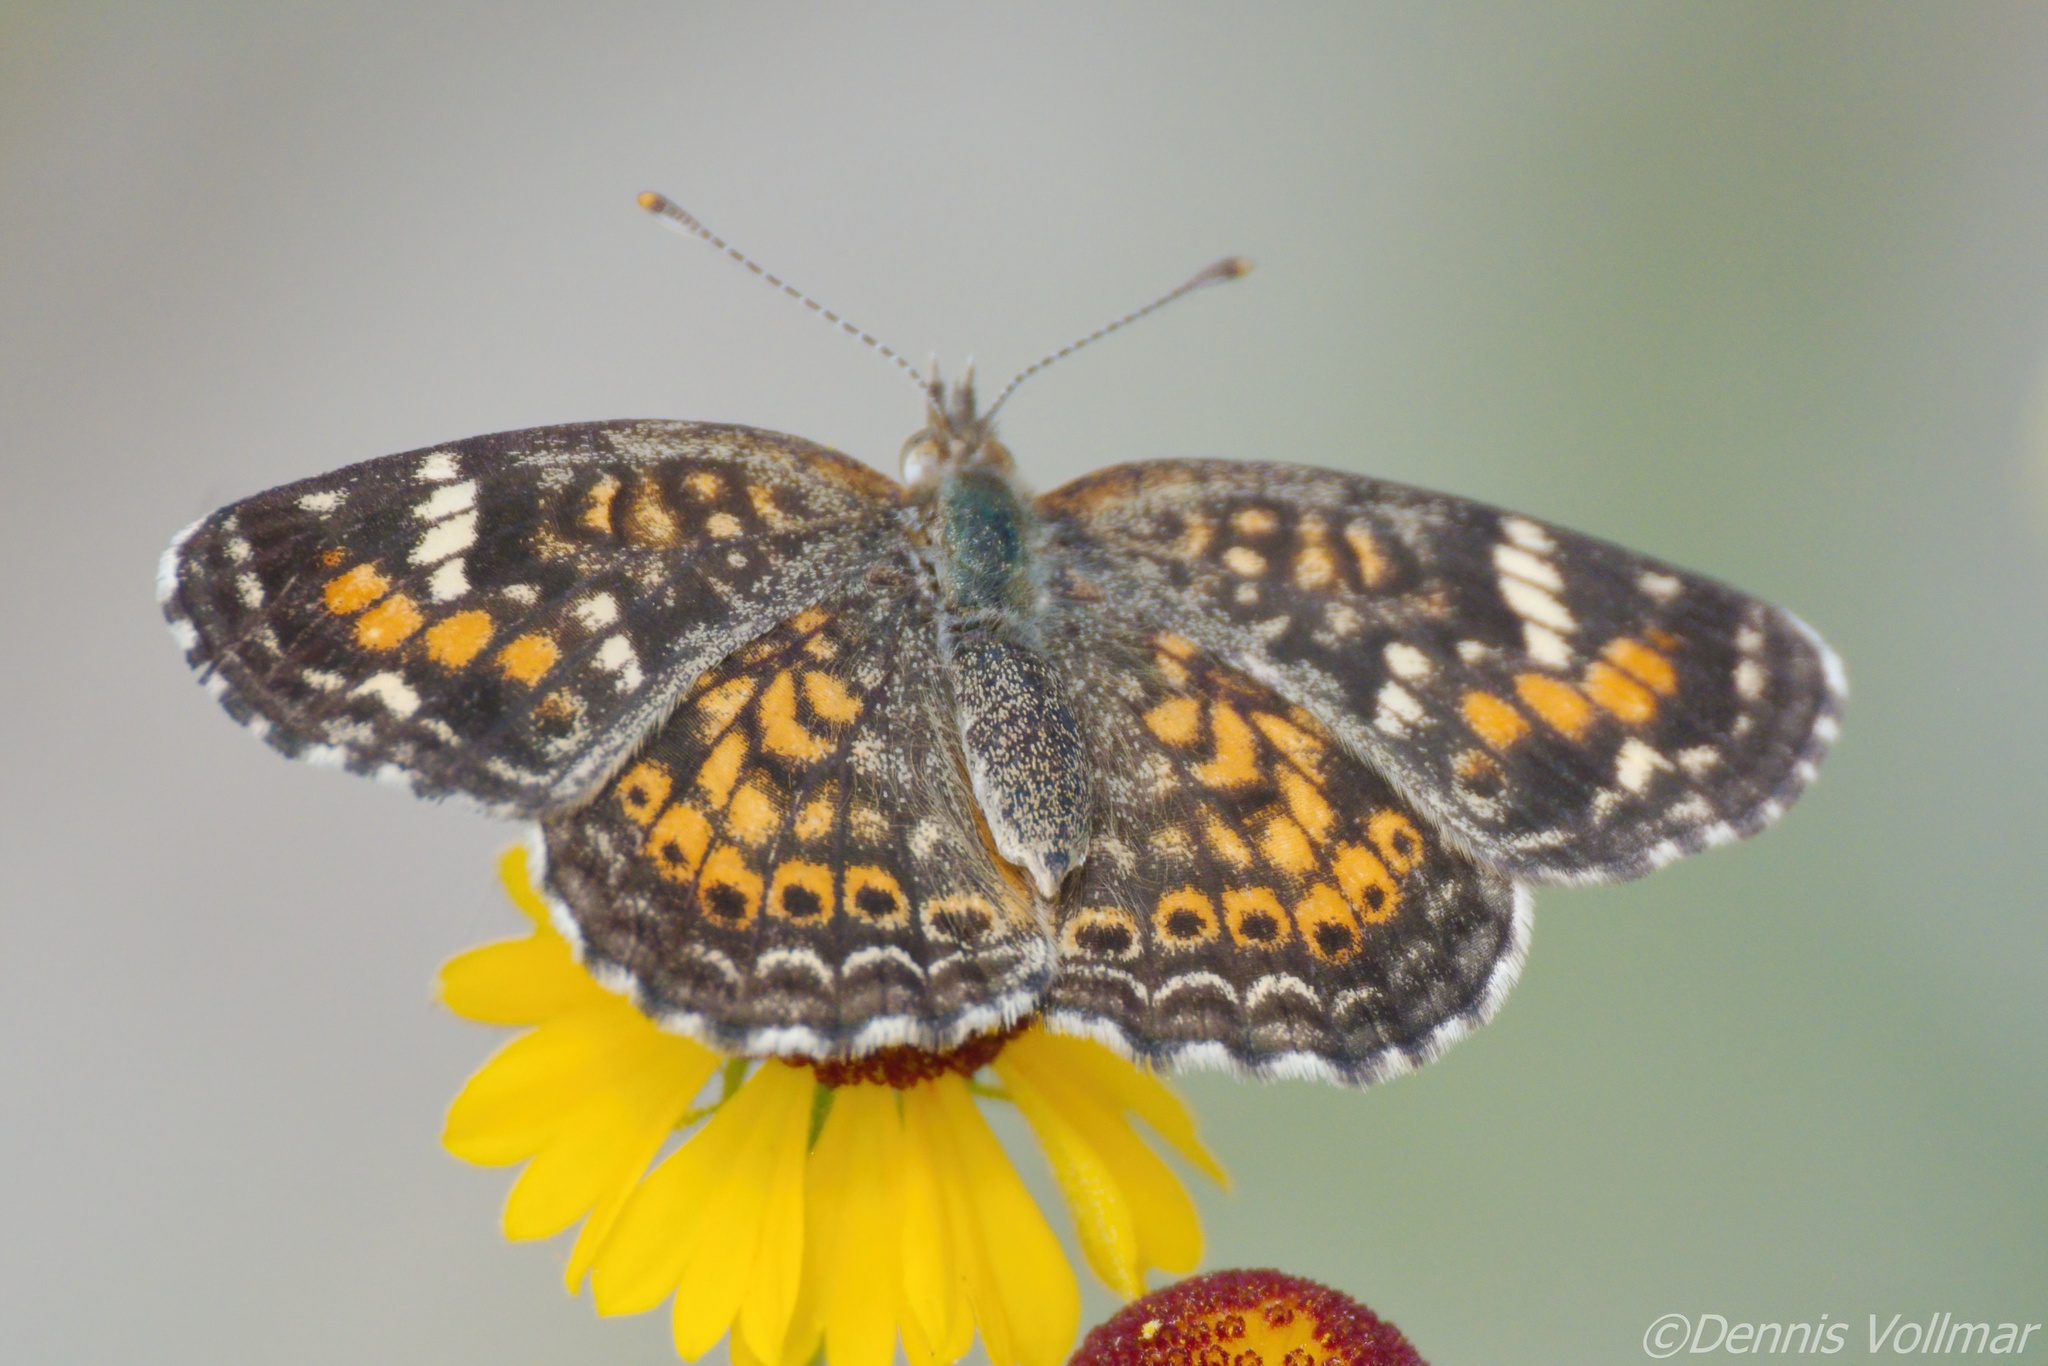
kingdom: Animalia
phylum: Arthropoda
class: Insecta
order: Lepidoptera
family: Nymphalidae
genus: Phyciodes
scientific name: Phyciodes phaon
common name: Phaon crescent
